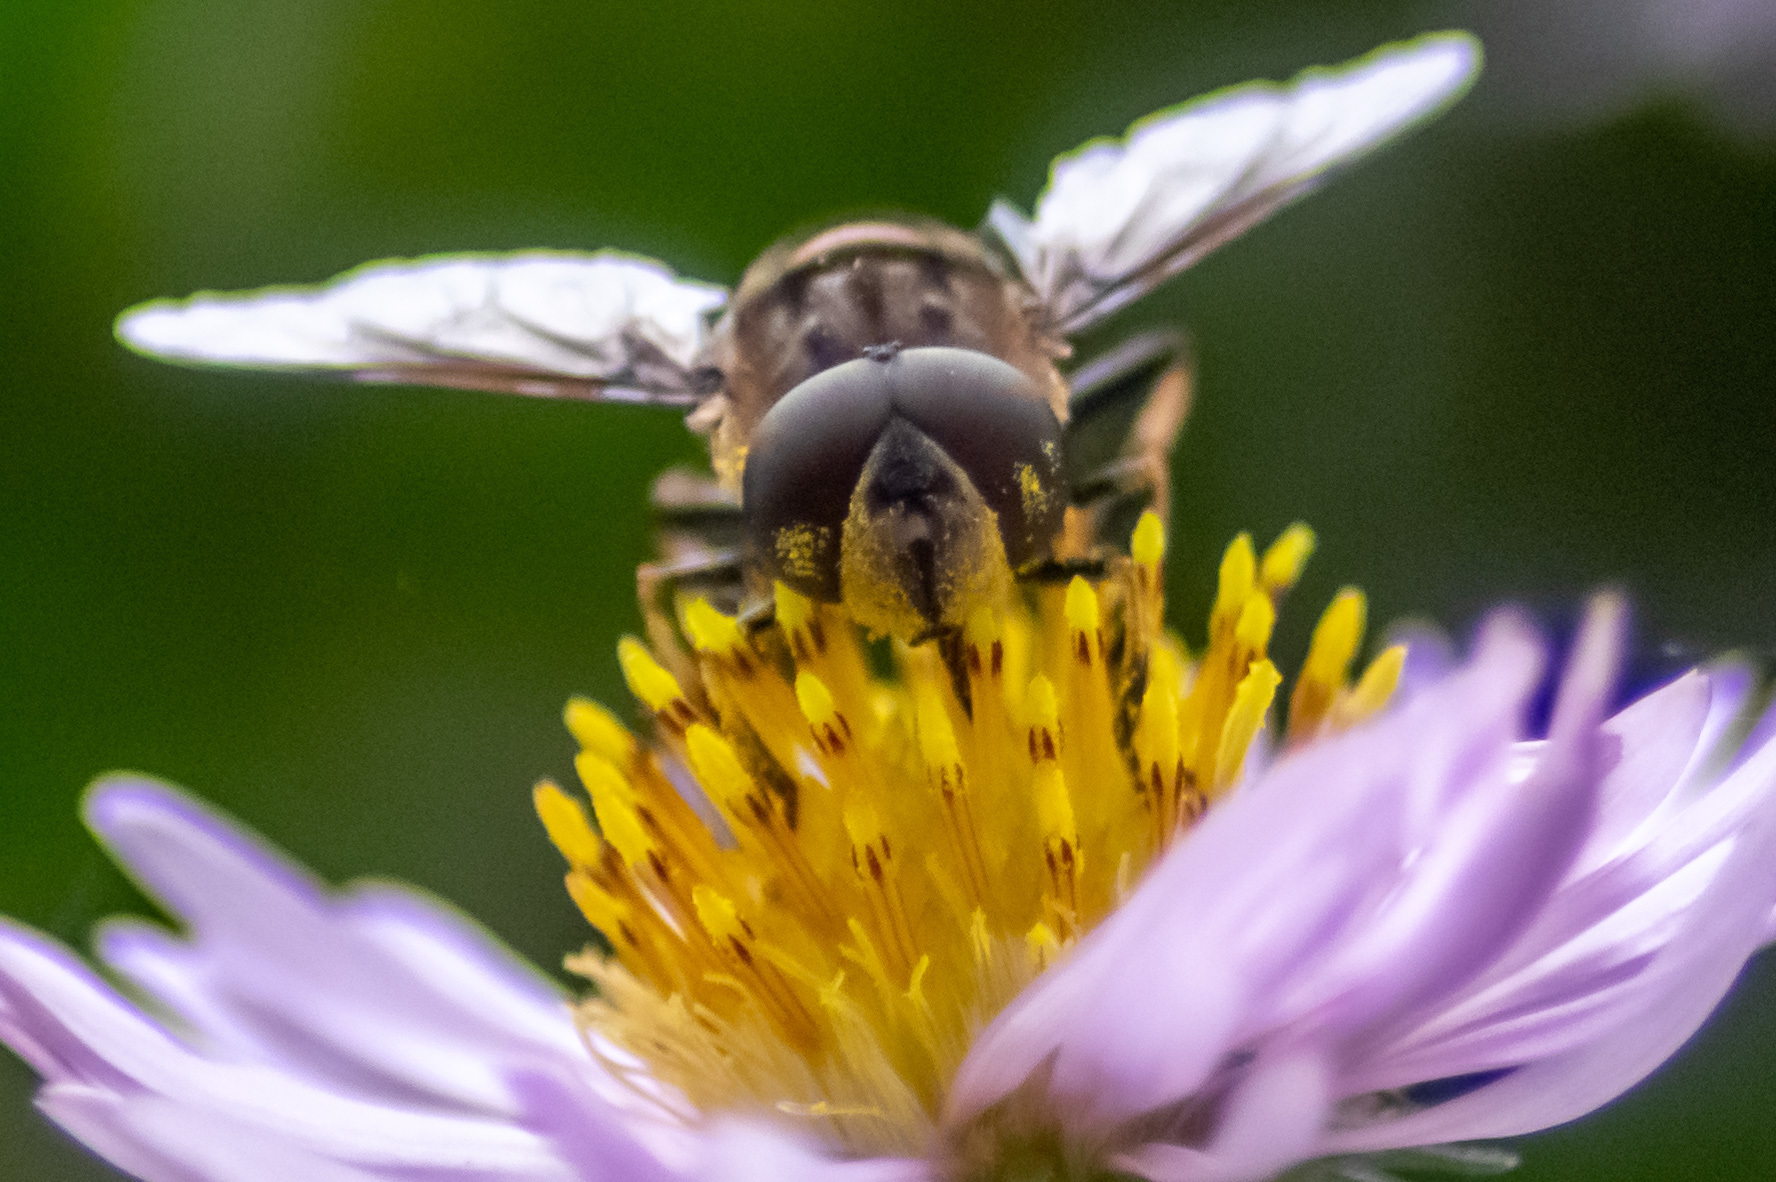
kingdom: Animalia
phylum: Arthropoda
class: Insecta
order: Diptera
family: Syrphidae
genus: Eristalis
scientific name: Eristalis dimidiata
